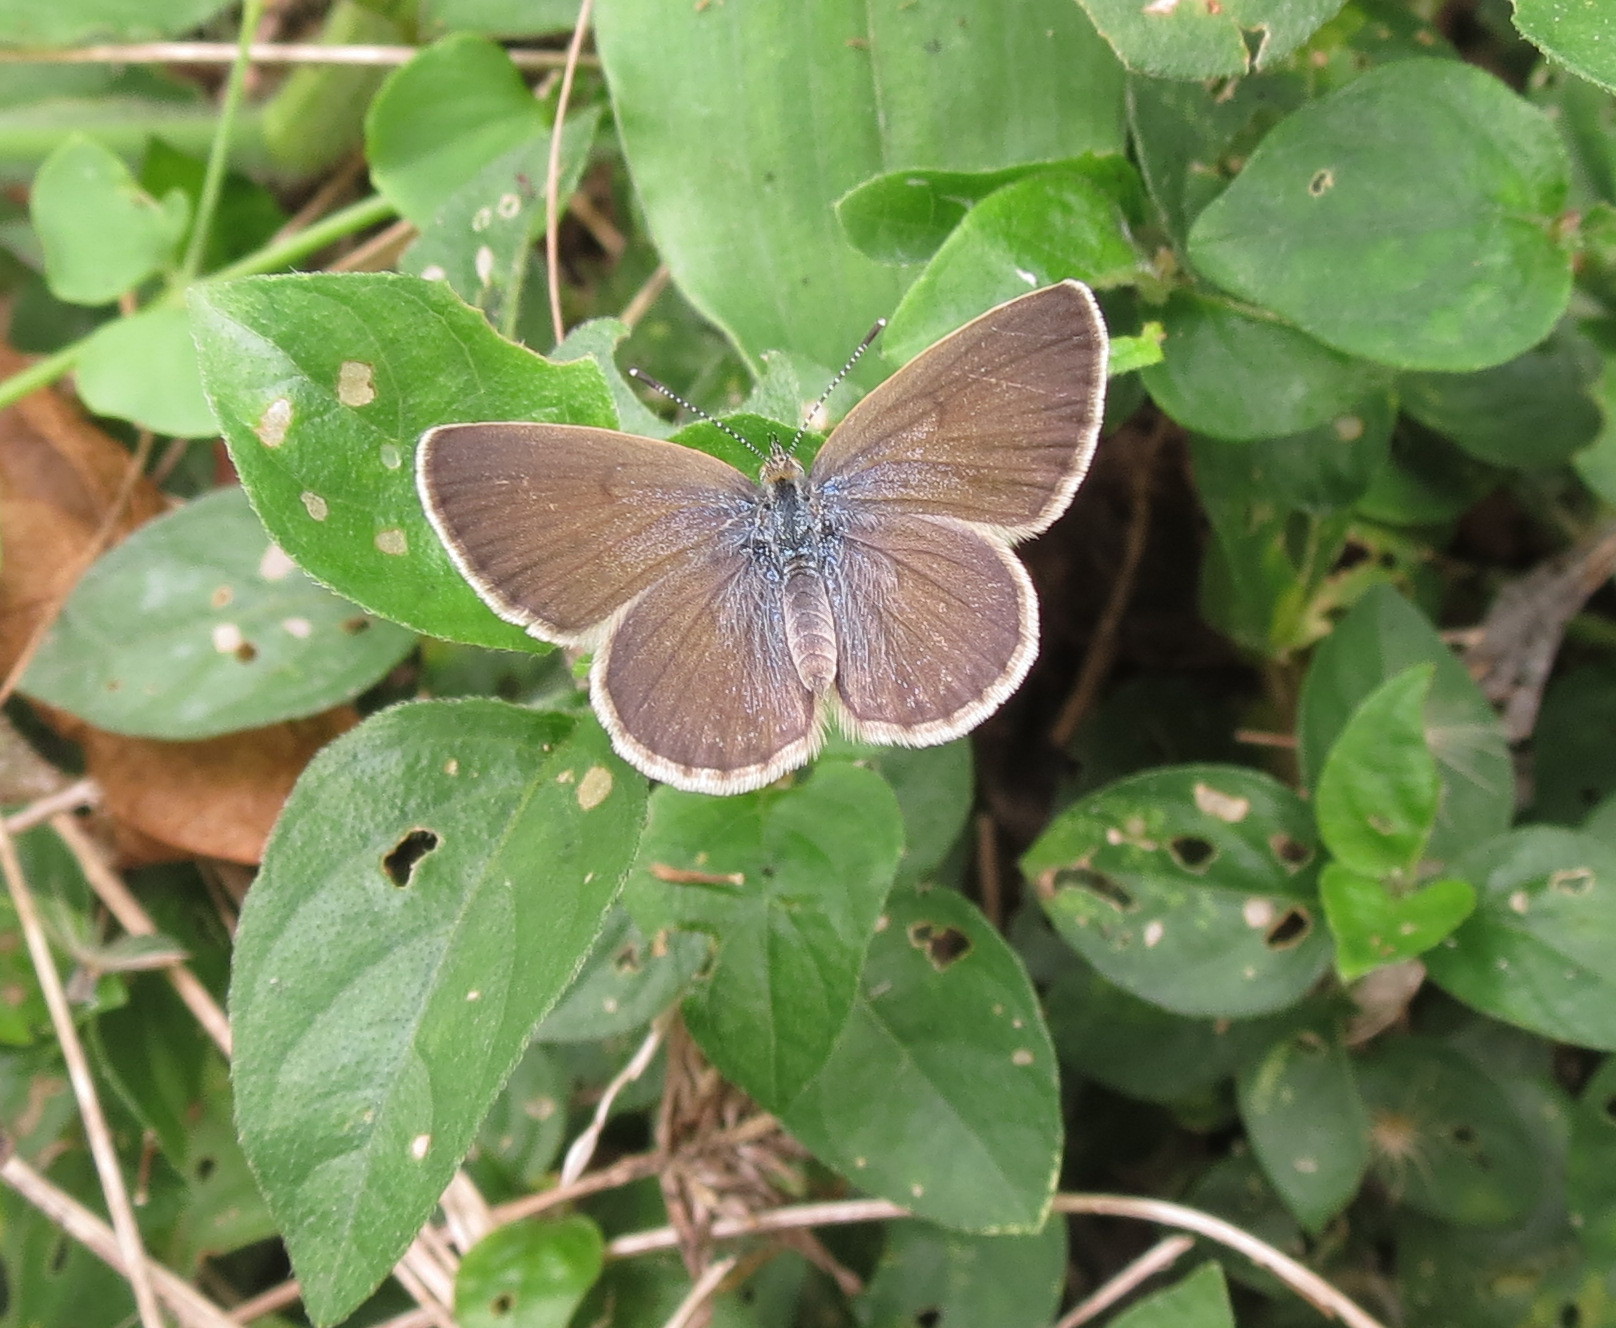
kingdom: Animalia
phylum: Arthropoda
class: Insecta
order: Lepidoptera
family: Lycaenidae
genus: Zizina
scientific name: Zizina antanossa
